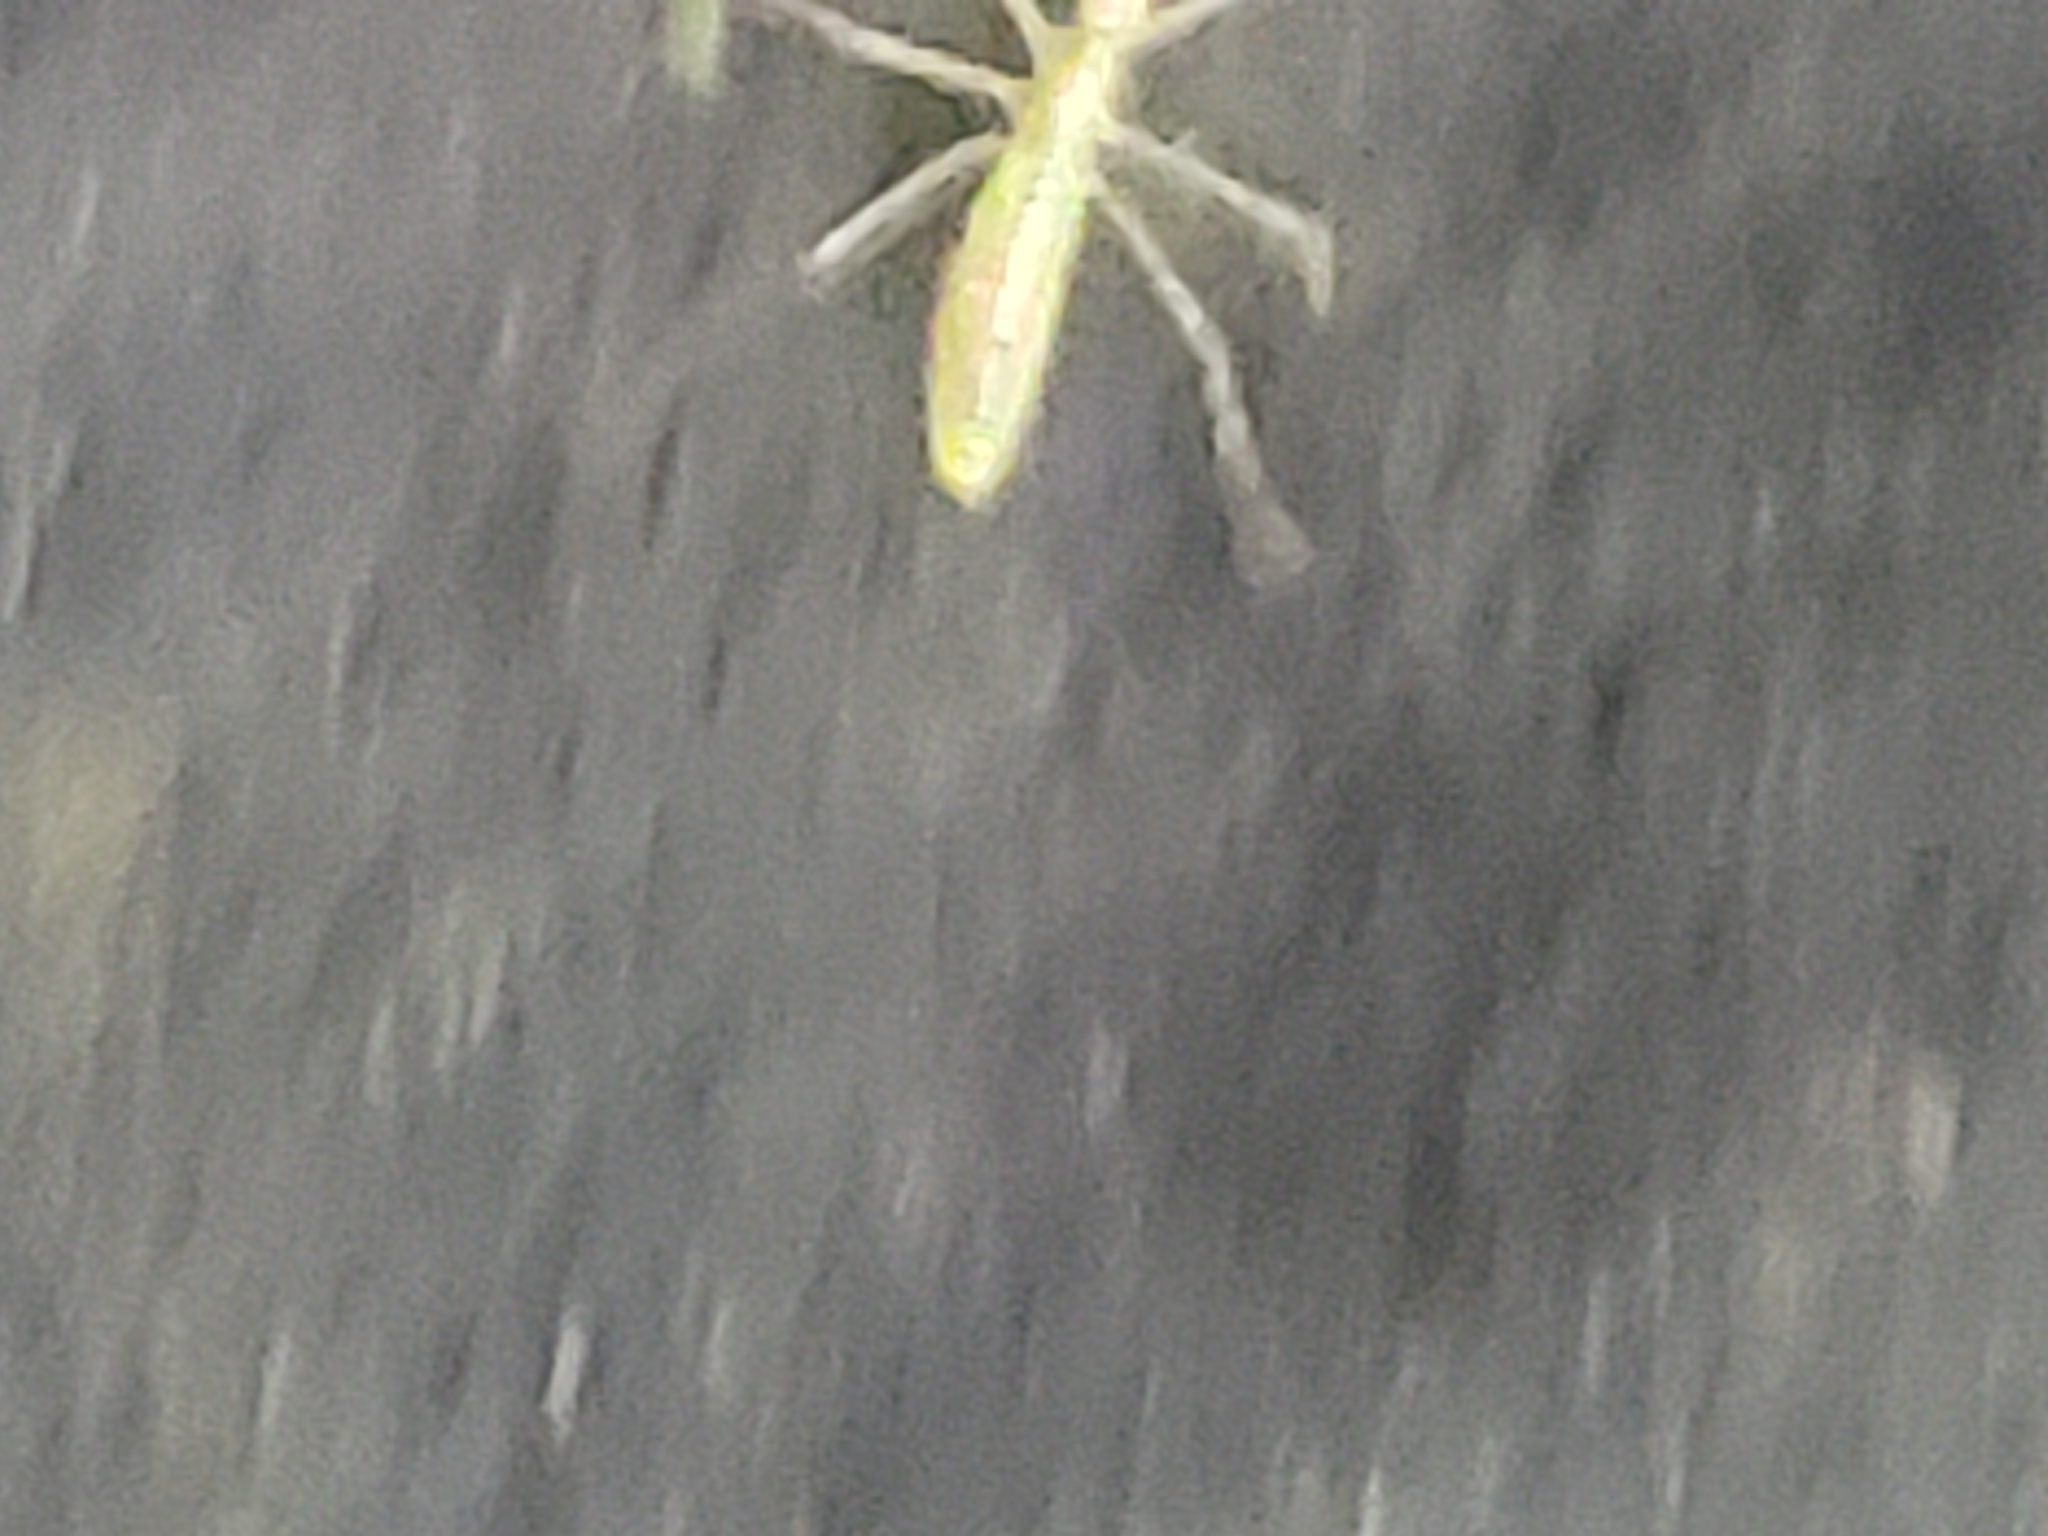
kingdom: Animalia
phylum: Arthropoda
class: Insecta
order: Hemiptera
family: Reduviidae
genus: Zelus
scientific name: Zelus luridus
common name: Pale green assassin bug
